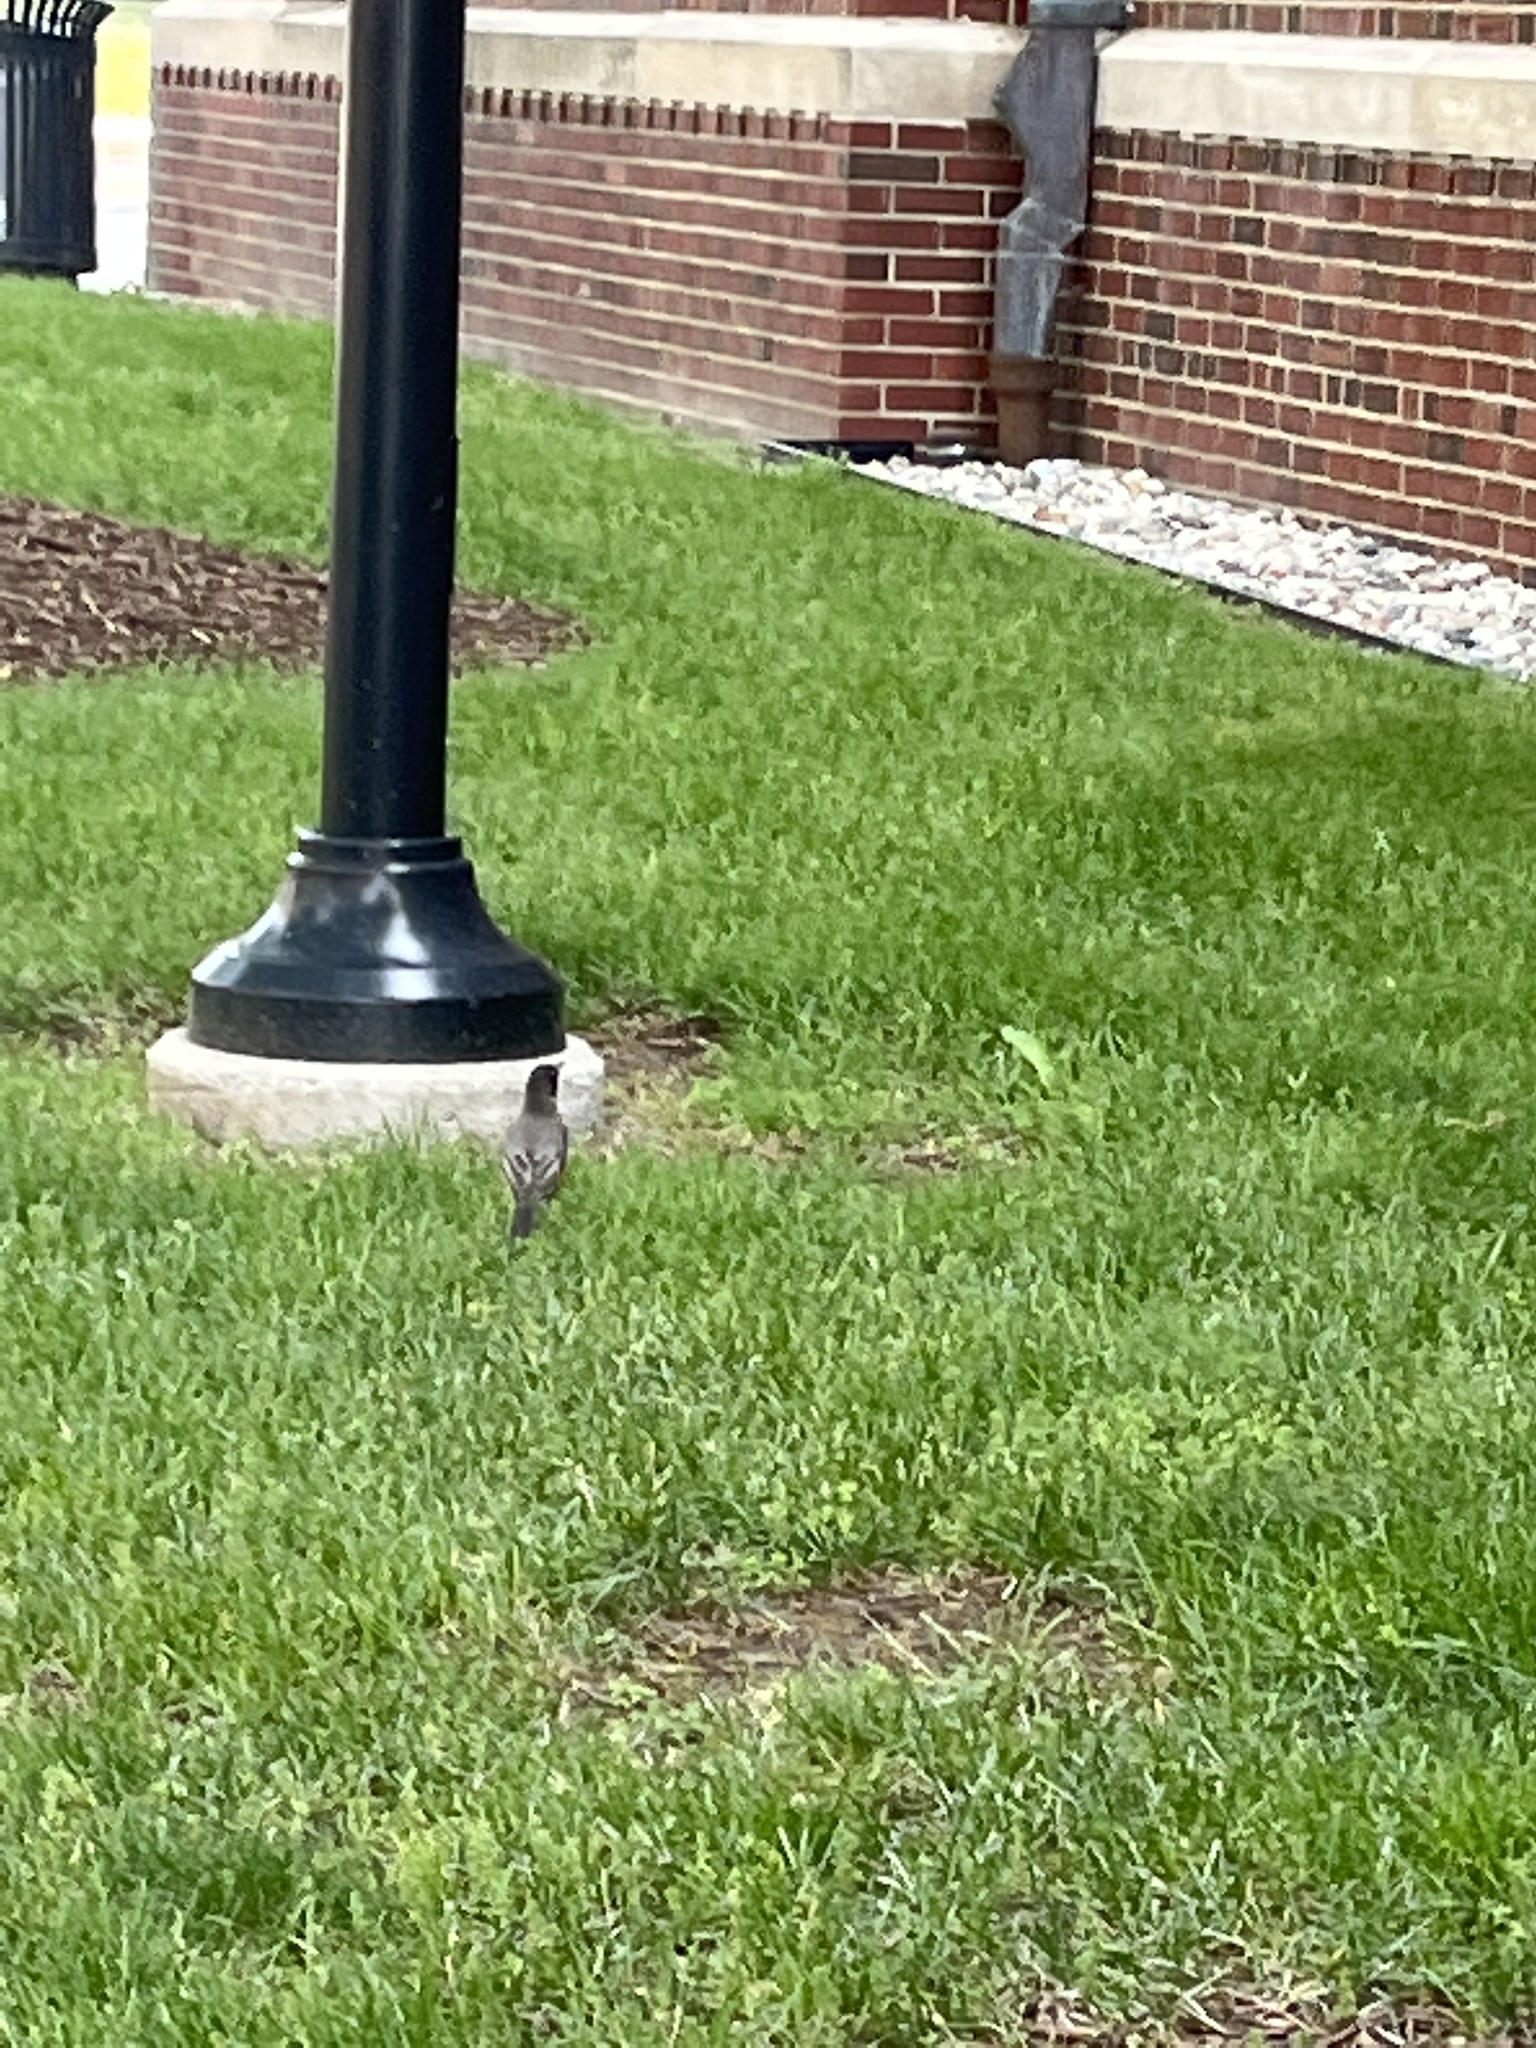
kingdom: Animalia
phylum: Chordata
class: Aves
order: Passeriformes
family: Turdidae
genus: Turdus
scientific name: Turdus migratorius
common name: American robin
